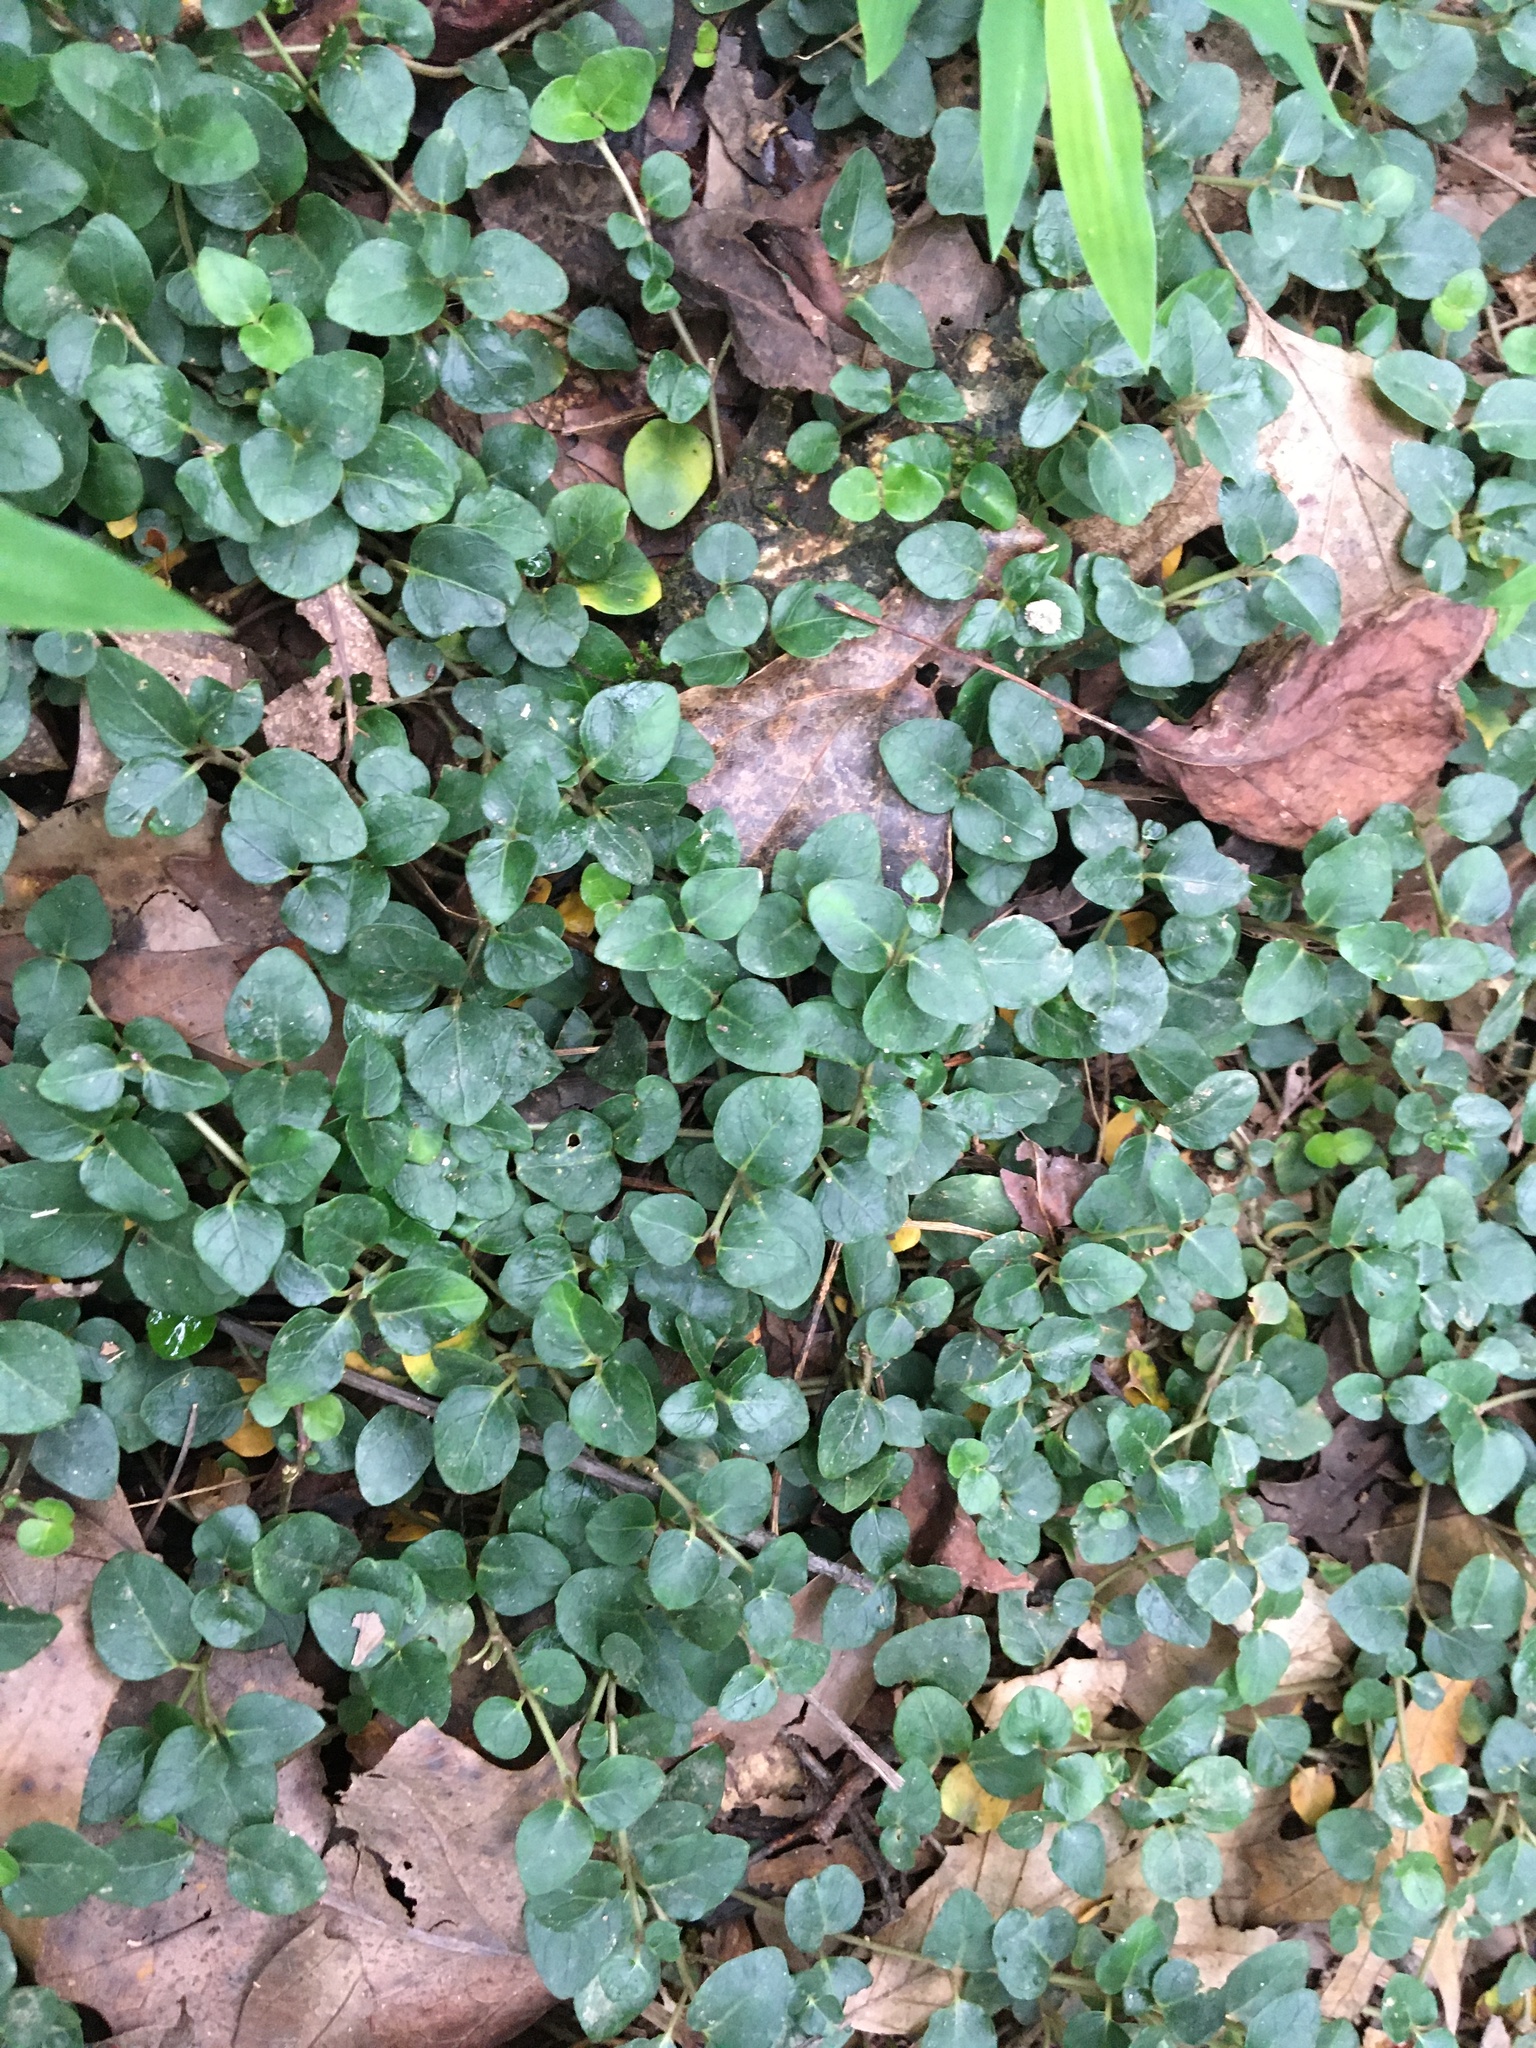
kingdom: Plantae
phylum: Tracheophyta
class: Magnoliopsida
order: Gentianales
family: Rubiaceae
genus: Mitchella
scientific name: Mitchella repens
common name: Partridge-berry
